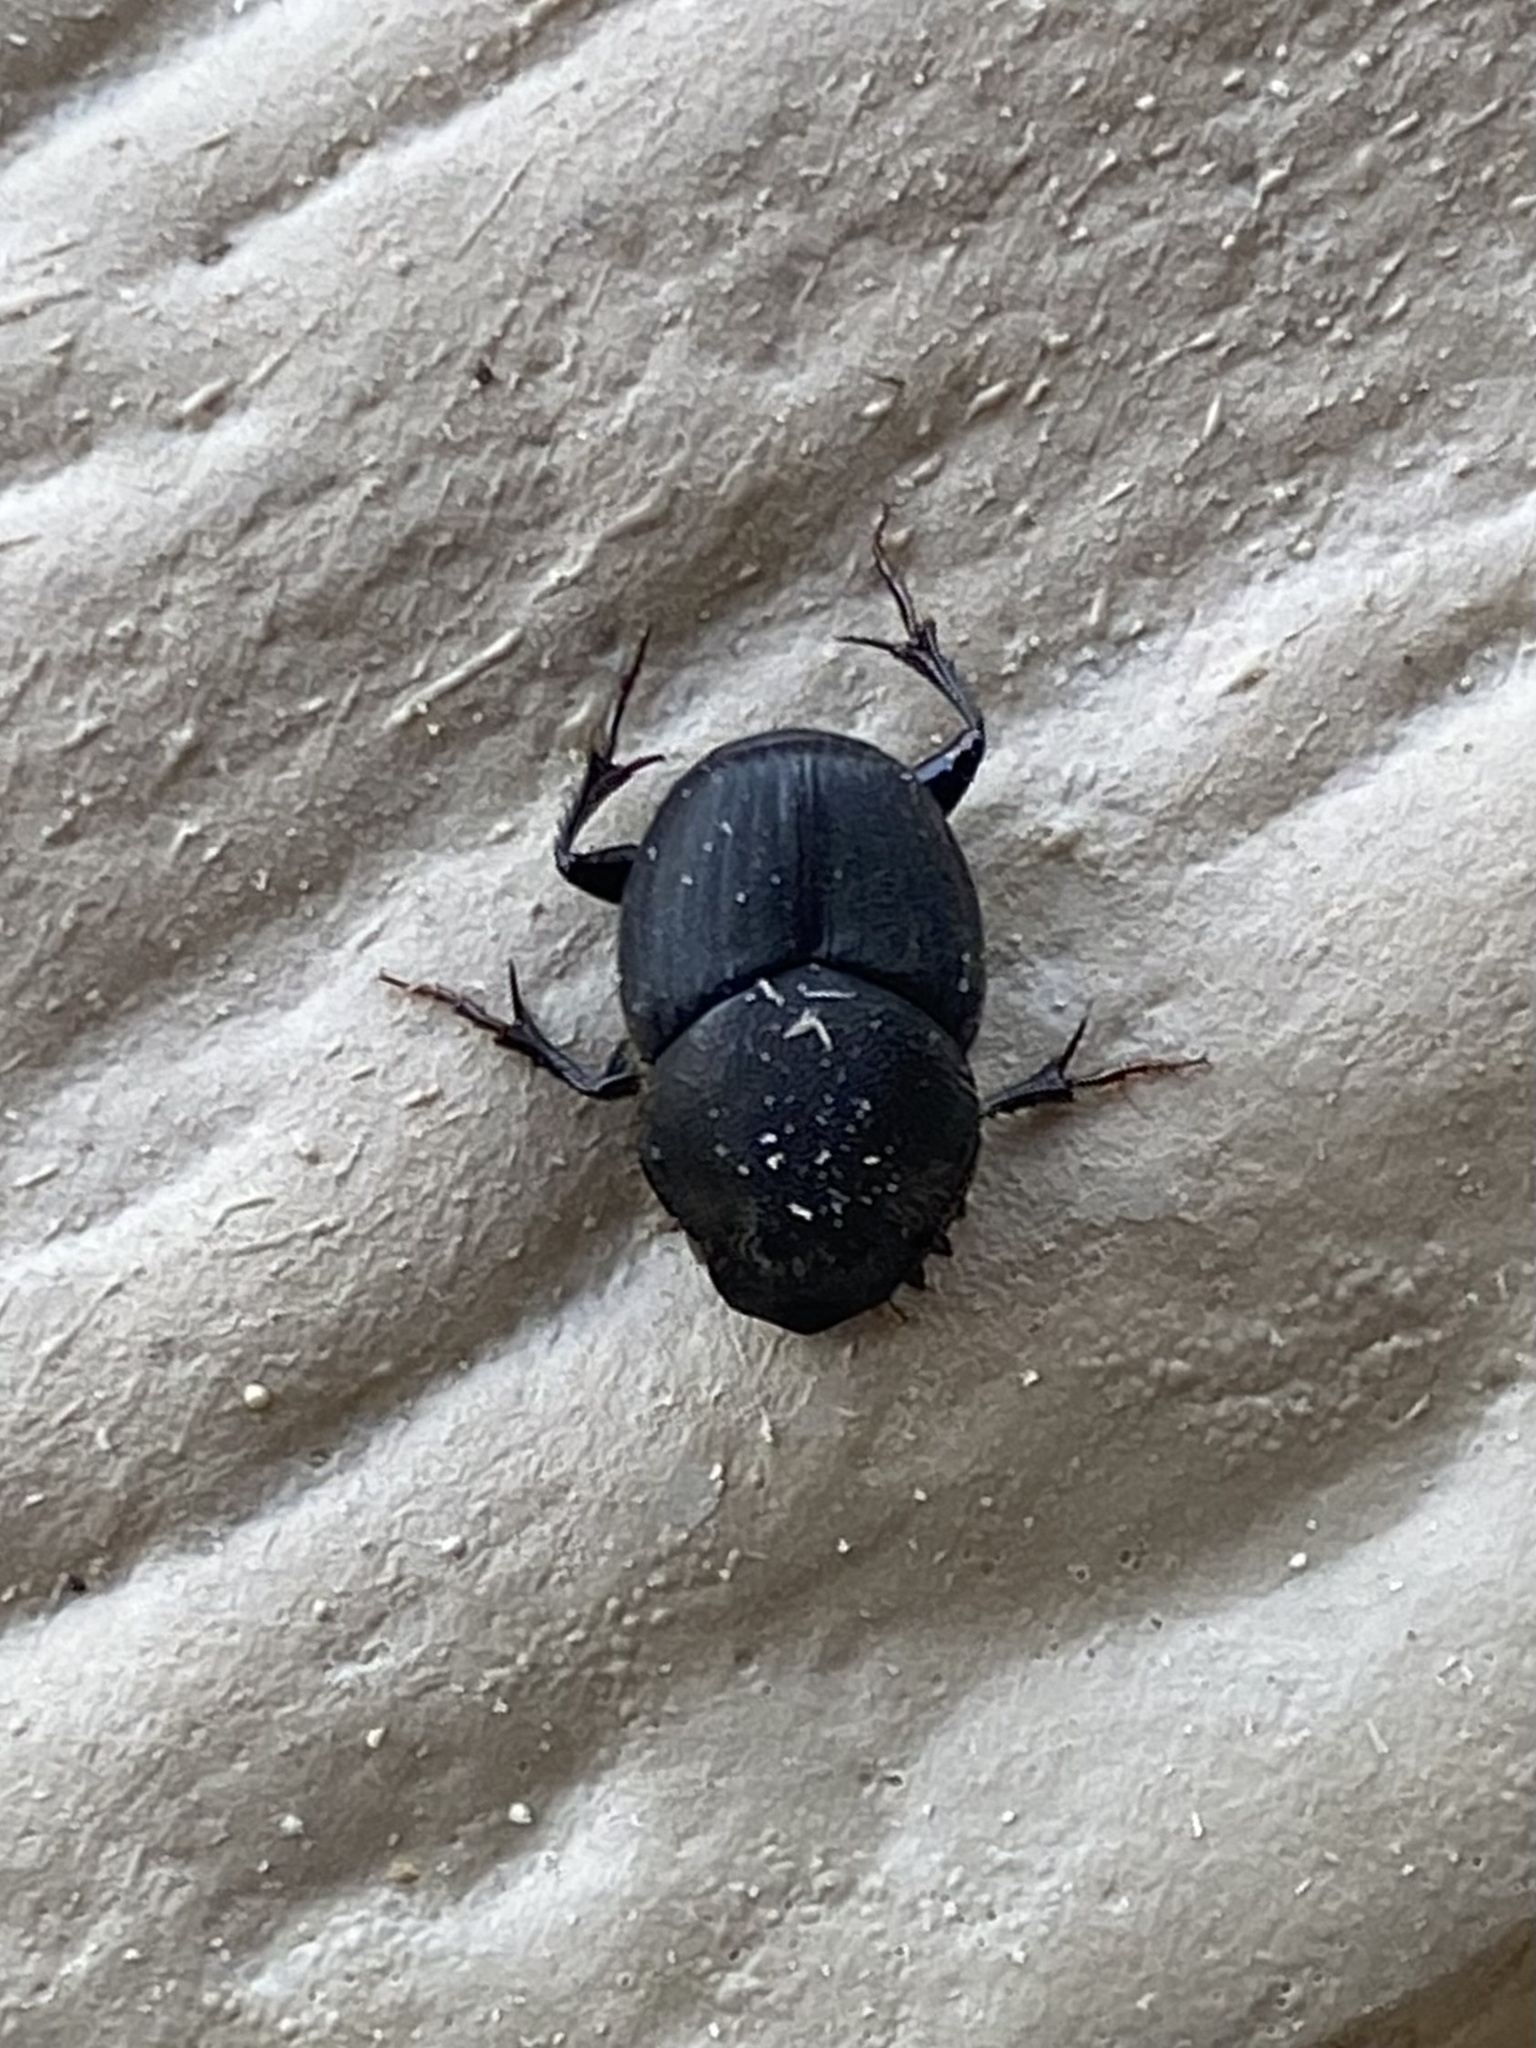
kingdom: Animalia
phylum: Arthropoda
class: Insecta
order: Coleoptera
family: Scarabaeidae
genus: Onthophagus
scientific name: Onthophagus hecate
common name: Scooped scarab
